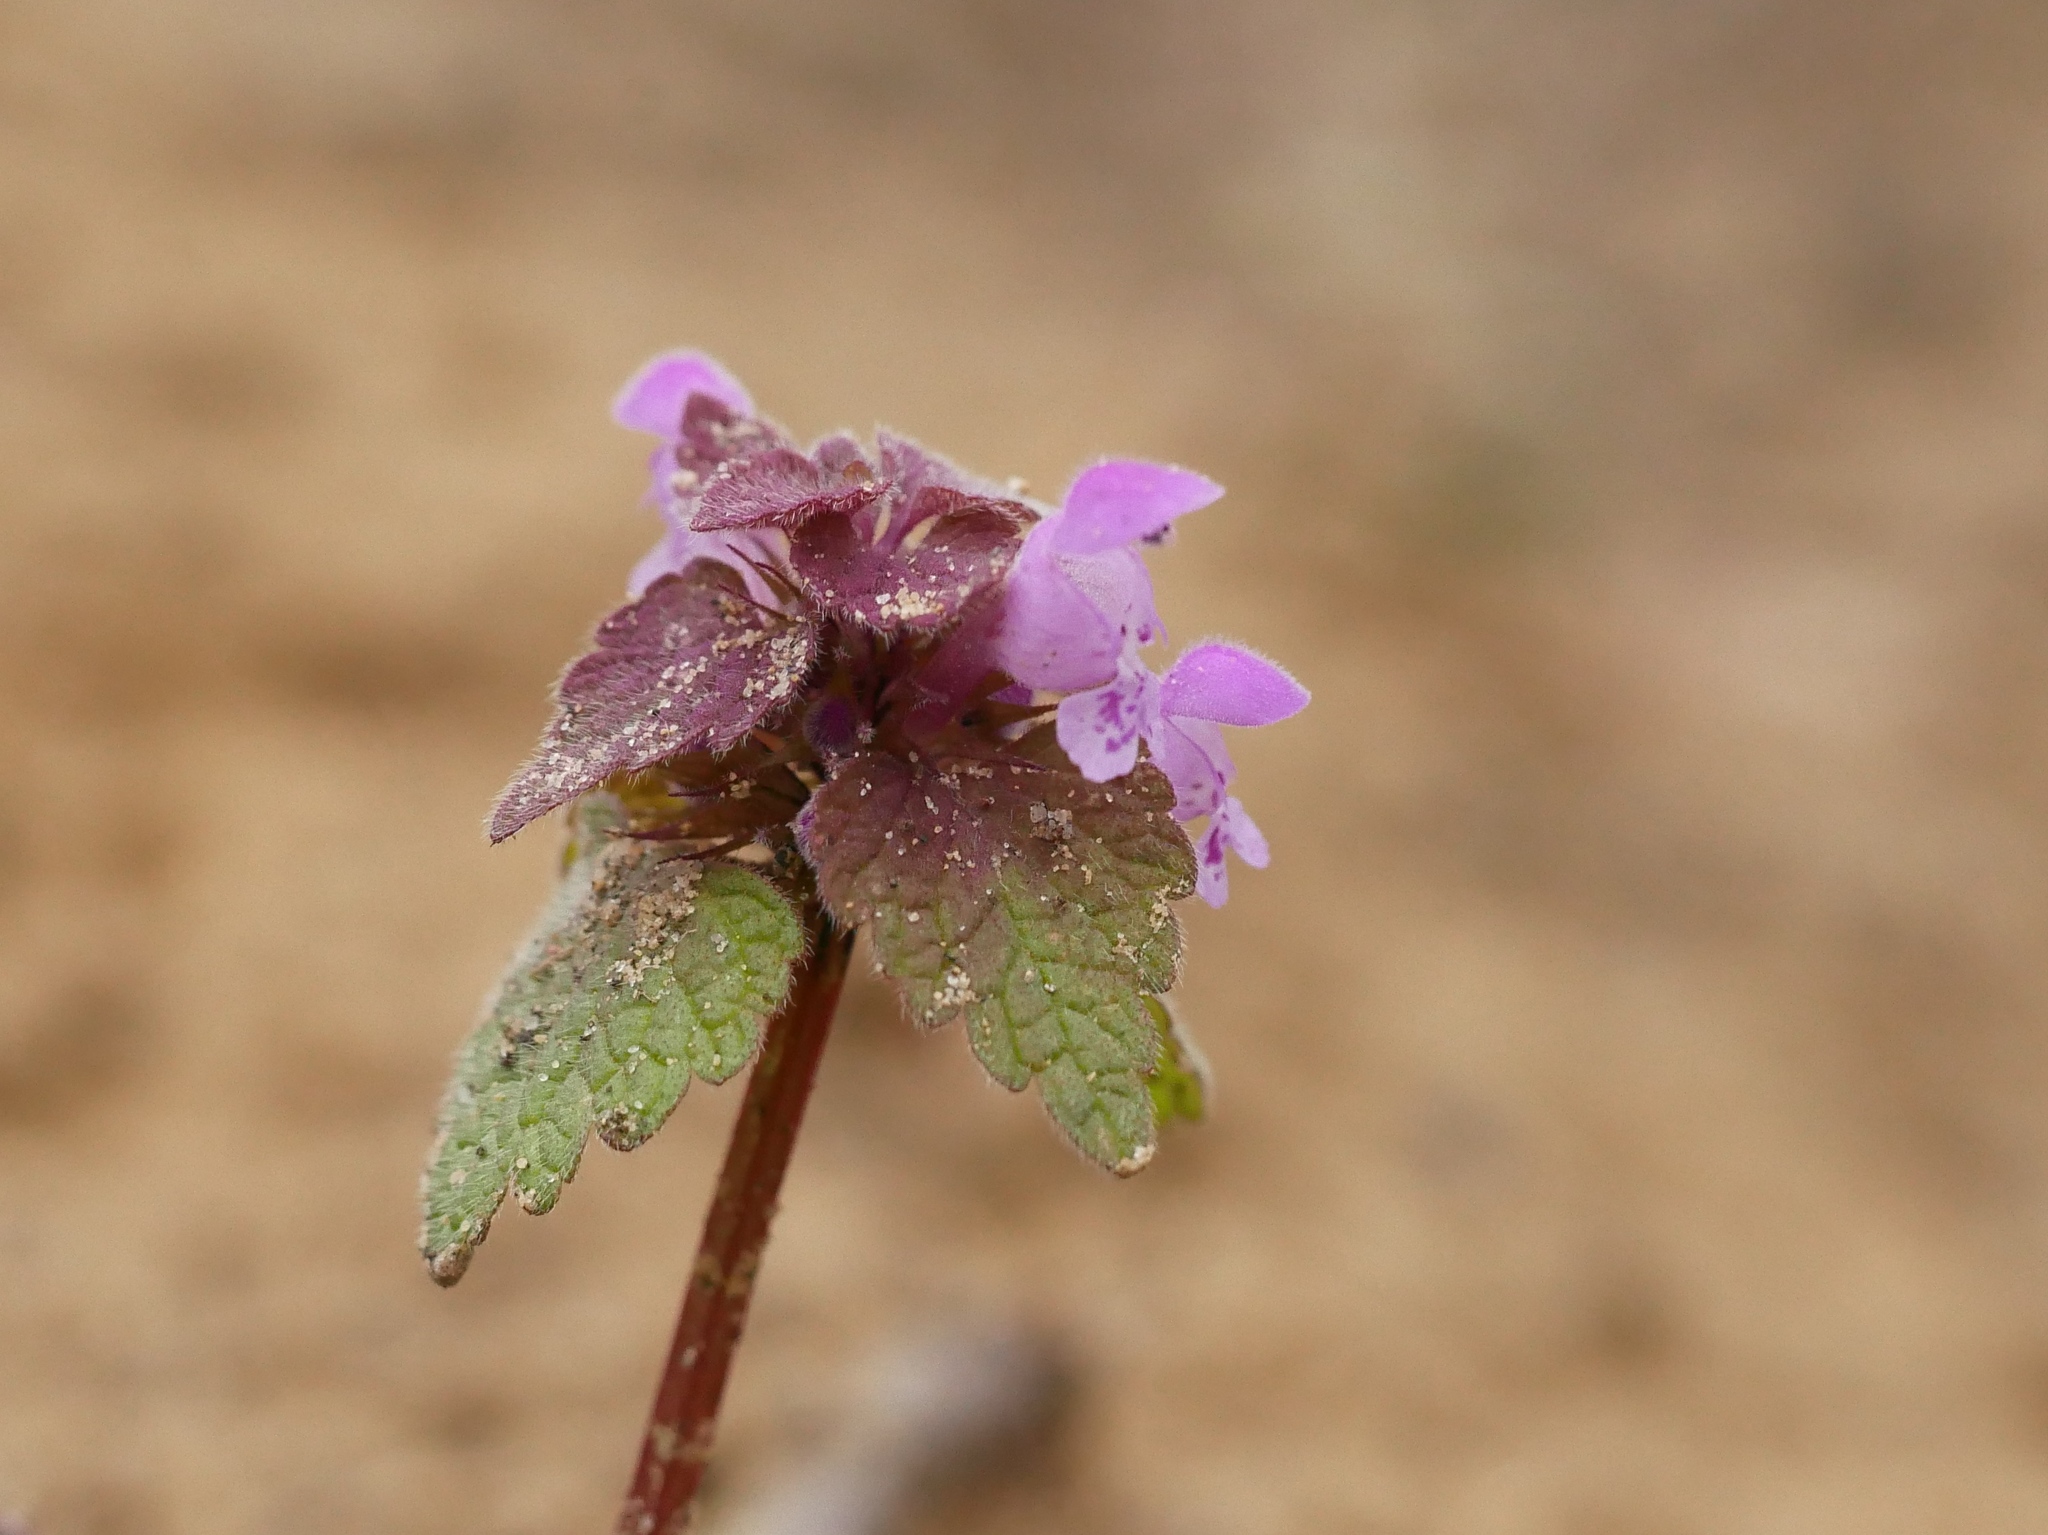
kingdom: Plantae
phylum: Tracheophyta
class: Magnoliopsida
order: Lamiales
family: Lamiaceae
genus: Lamium
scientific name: Lamium purpureum
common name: Red dead-nettle
